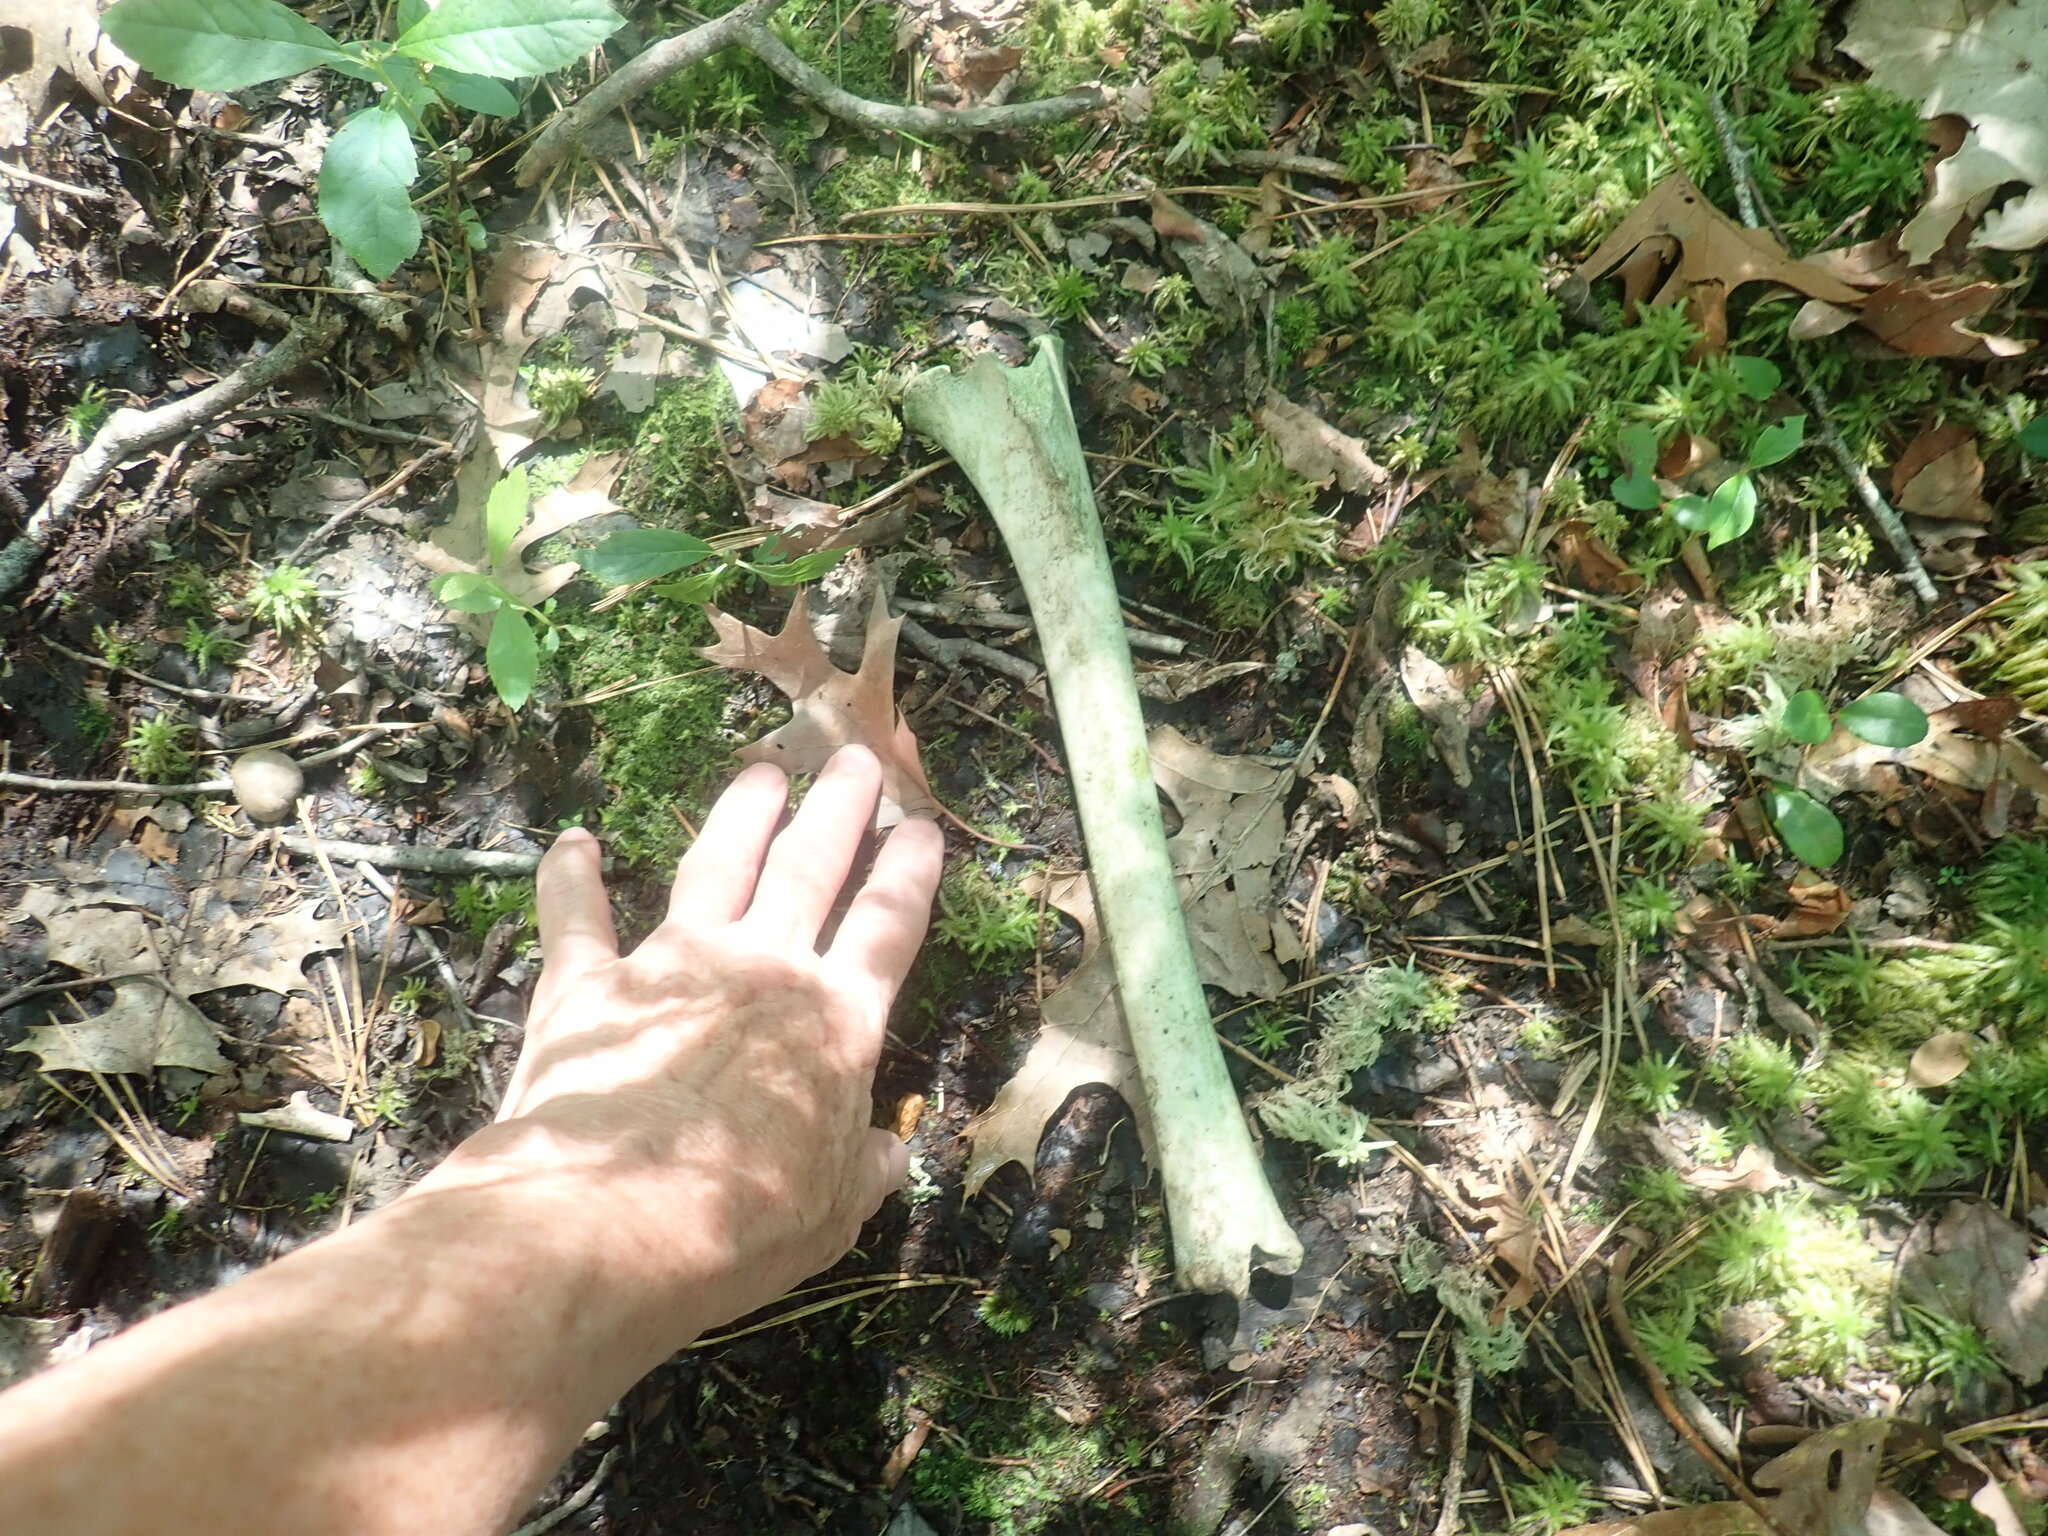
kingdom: Animalia
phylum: Chordata
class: Mammalia
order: Artiodactyla
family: Cervidae
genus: Odocoileus
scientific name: Odocoileus virginianus
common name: White-tailed deer
